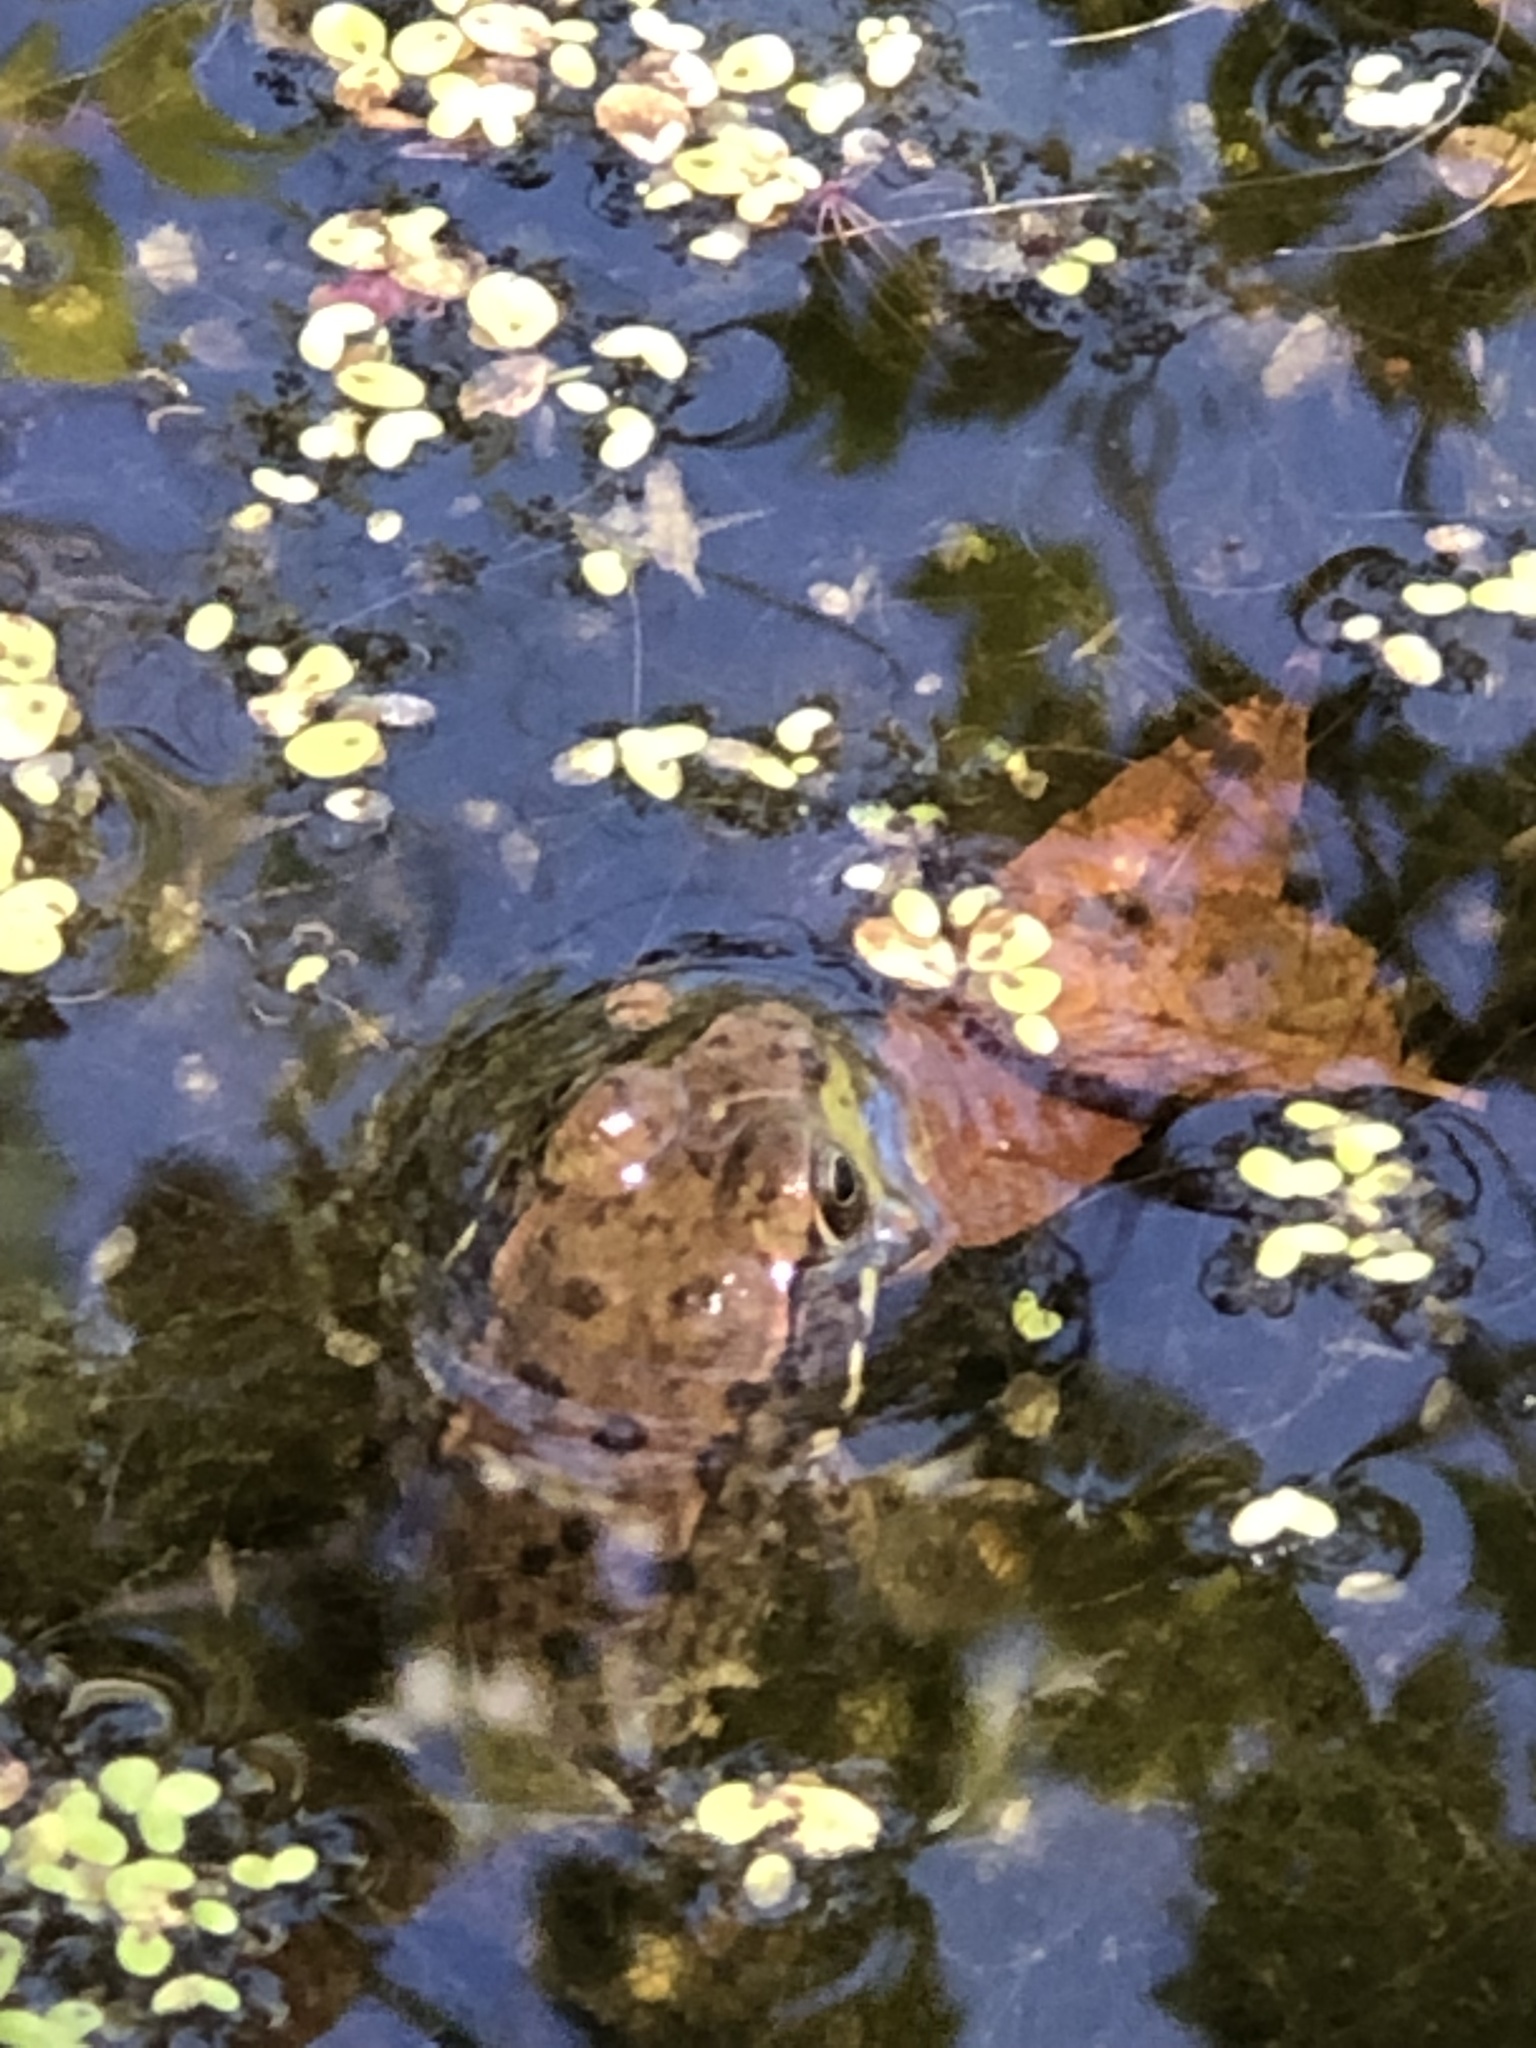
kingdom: Animalia
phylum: Chordata
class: Amphibia
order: Anura
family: Ranidae
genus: Lithobates
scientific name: Lithobates clamitans
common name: Green frog
